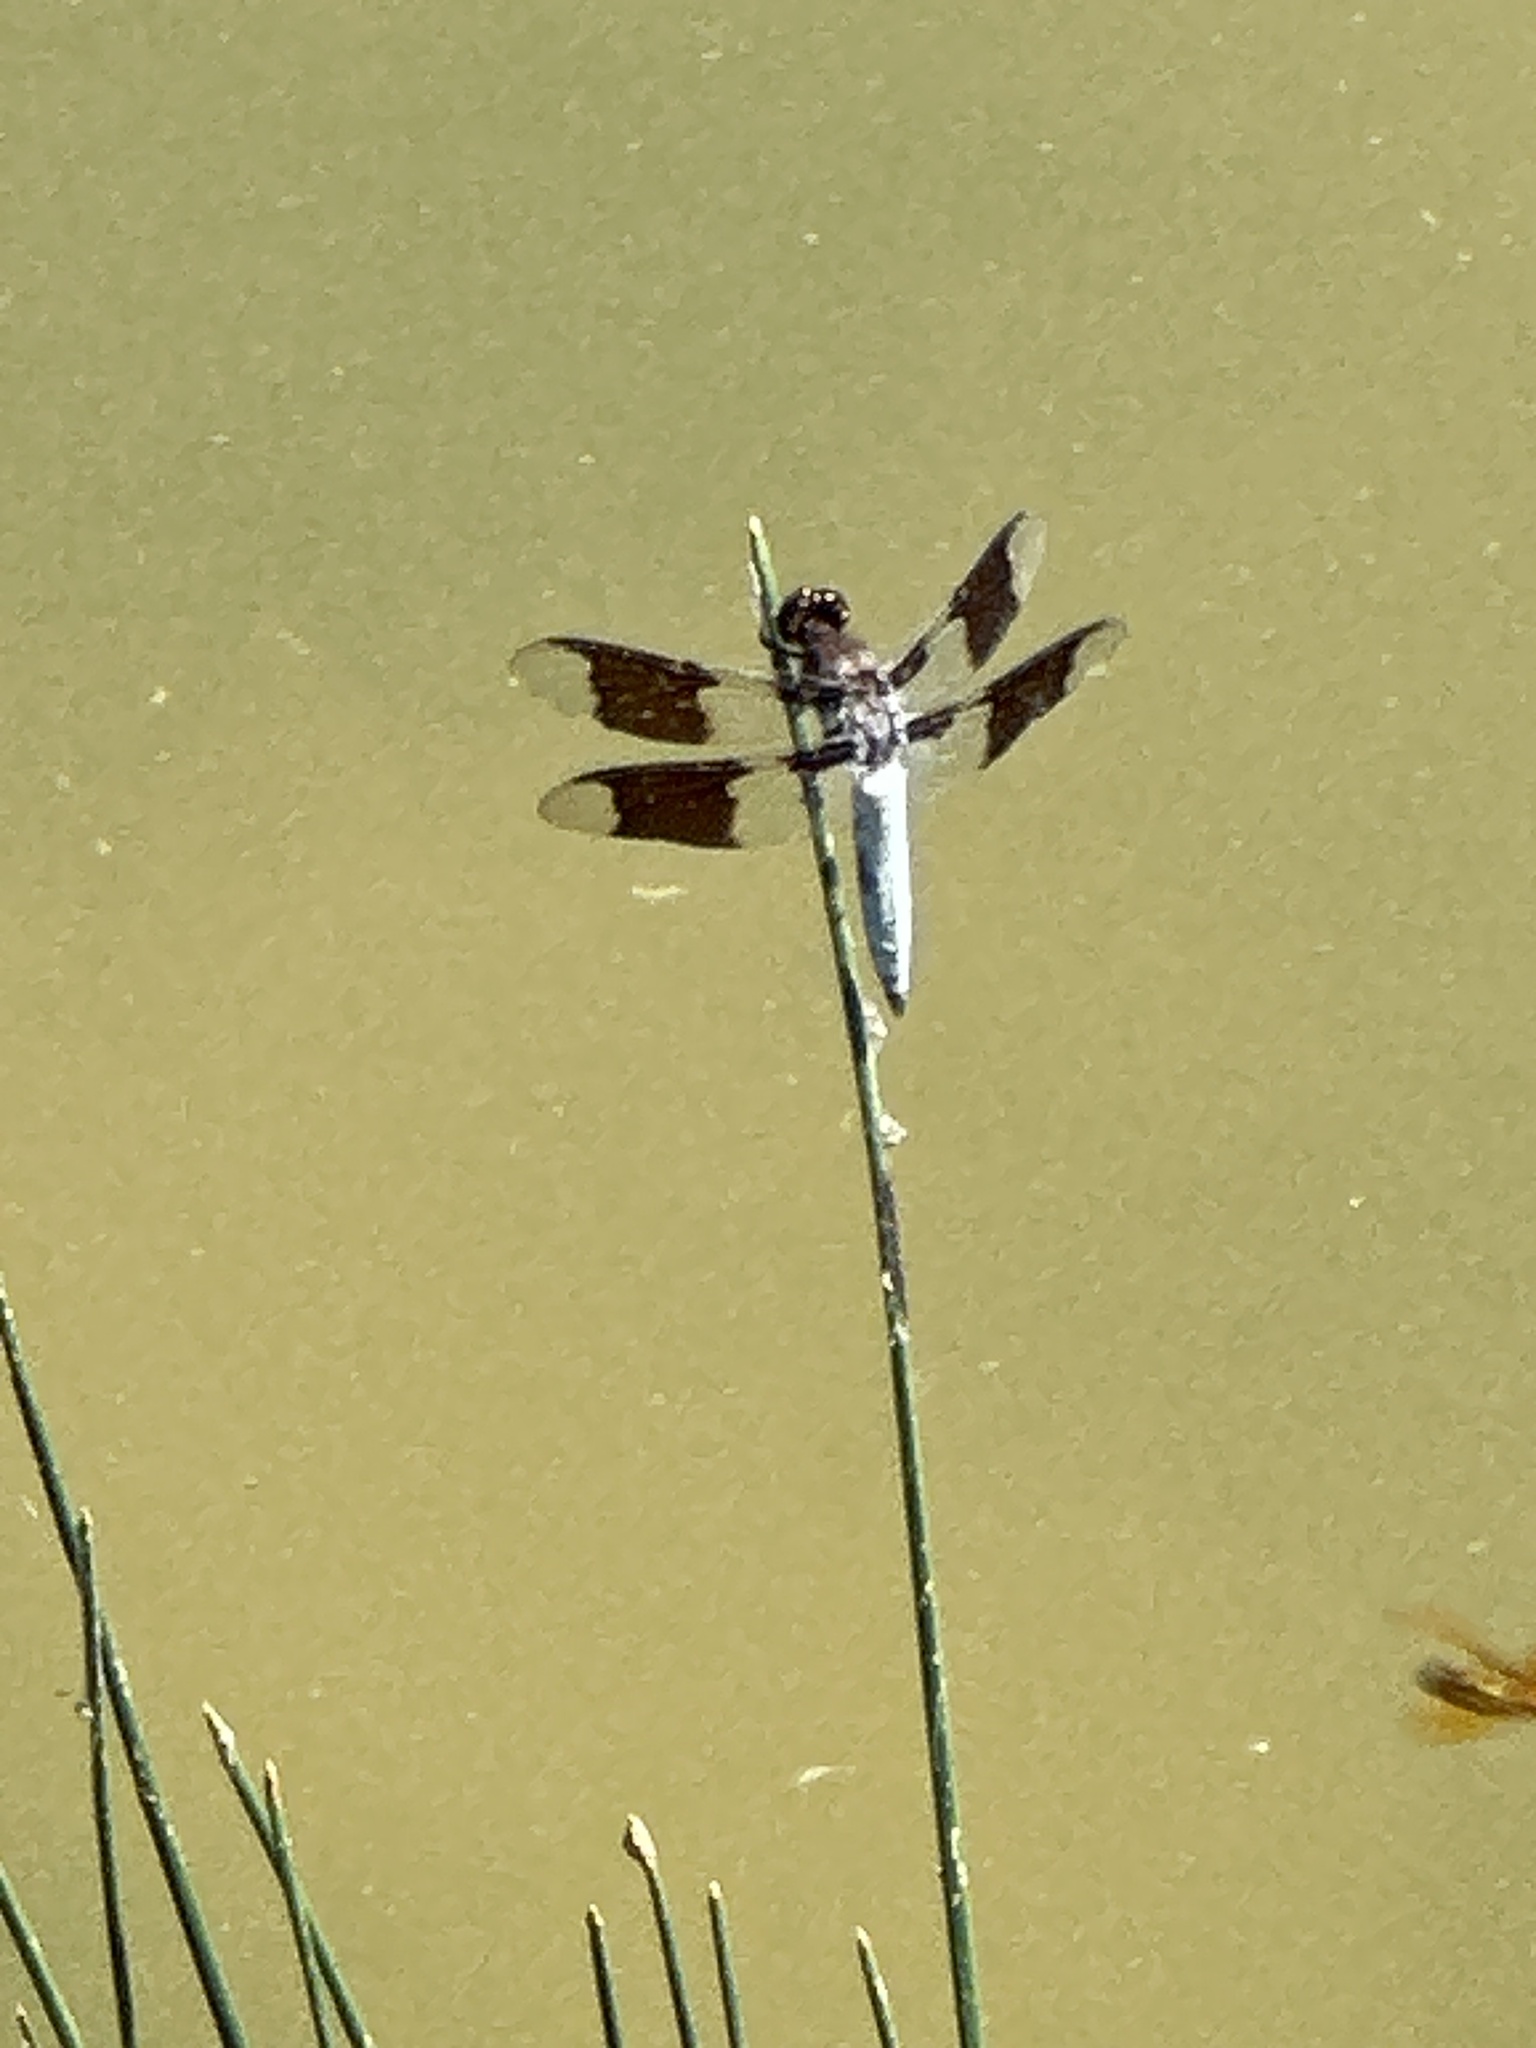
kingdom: Animalia
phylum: Arthropoda
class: Insecta
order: Odonata
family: Libellulidae
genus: Plathemis
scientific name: Plathemis lydia
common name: Common whitetail
